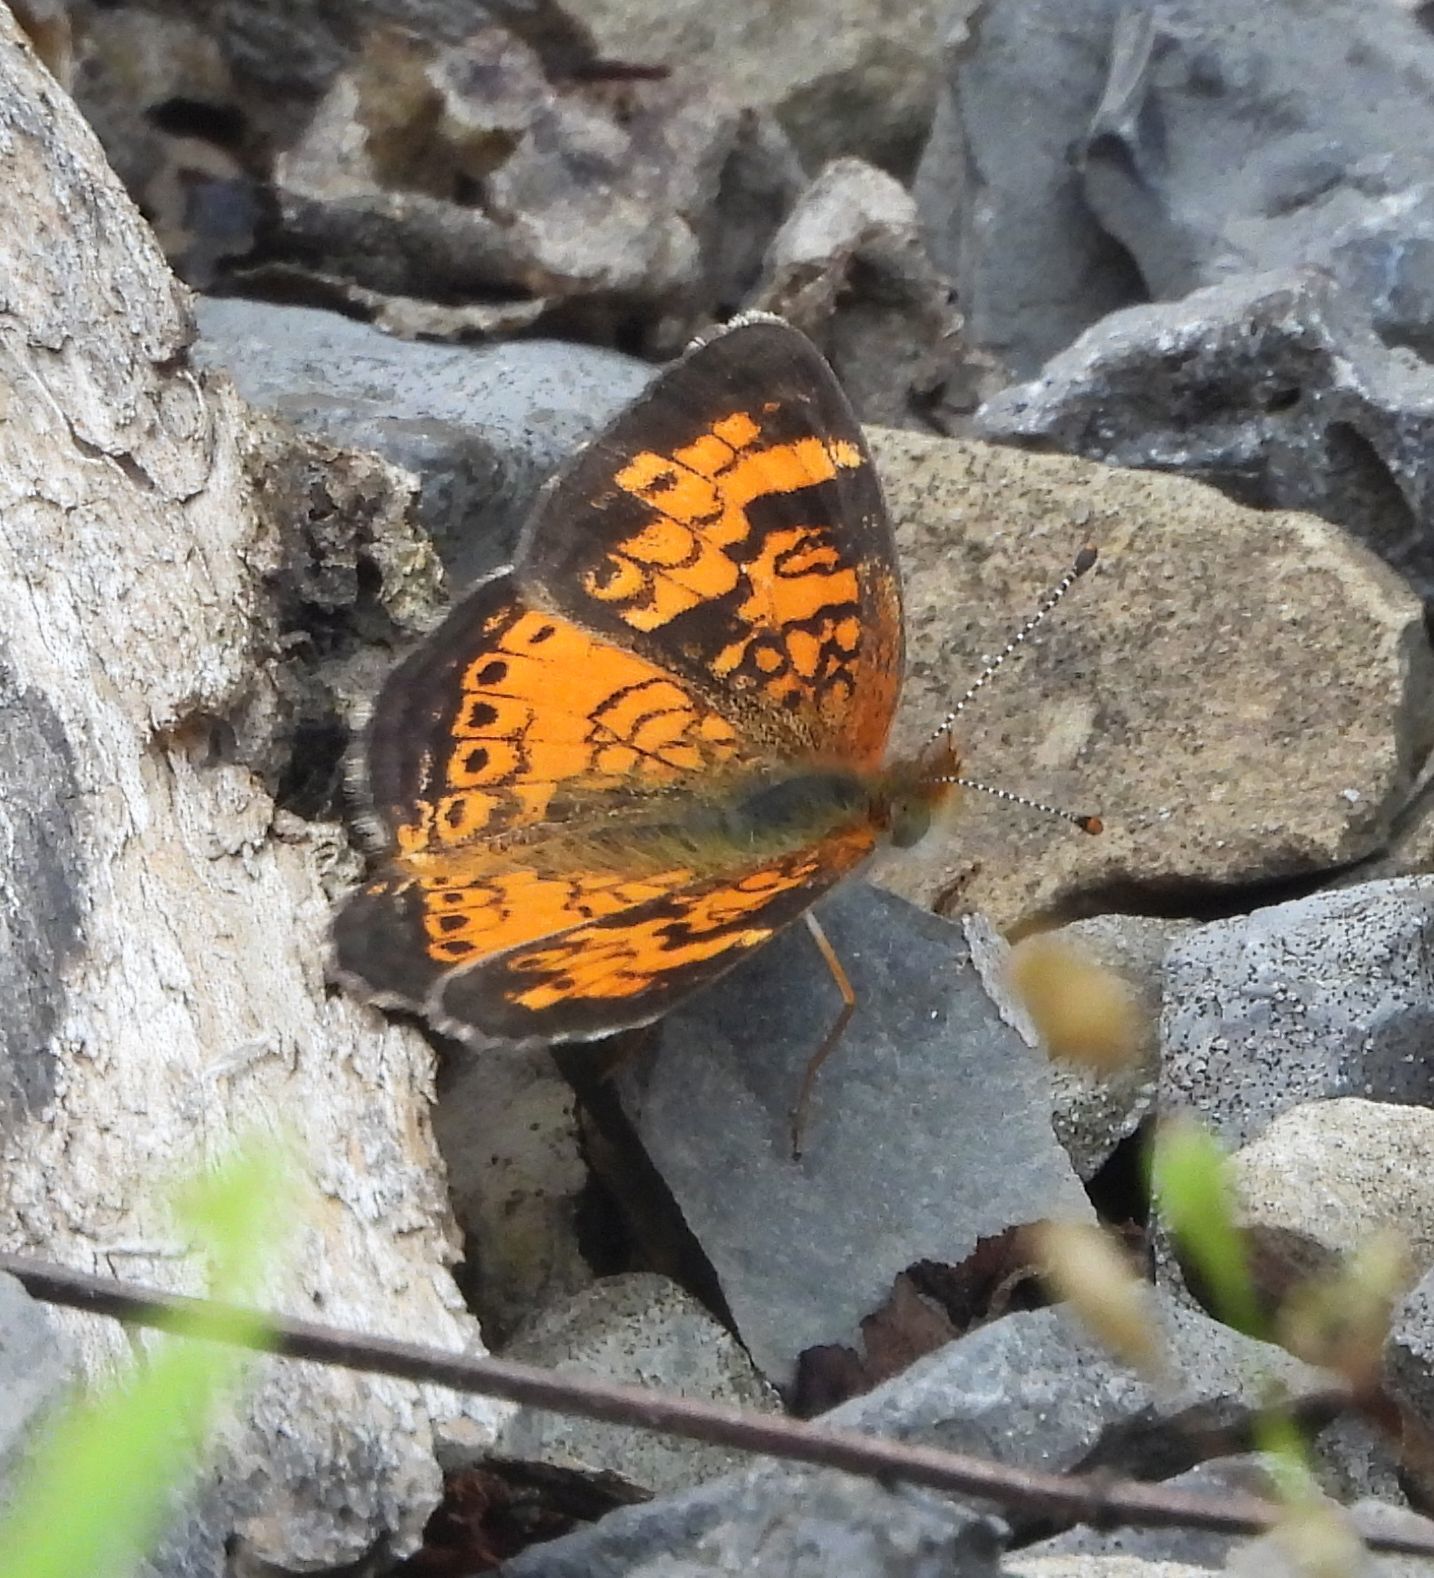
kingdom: Animalia
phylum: Arthropoda
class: Insecta
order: Lepidoptera
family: Nymphalidae
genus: Phyciodes
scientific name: Phyciodes tharos
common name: Pearl crescent
